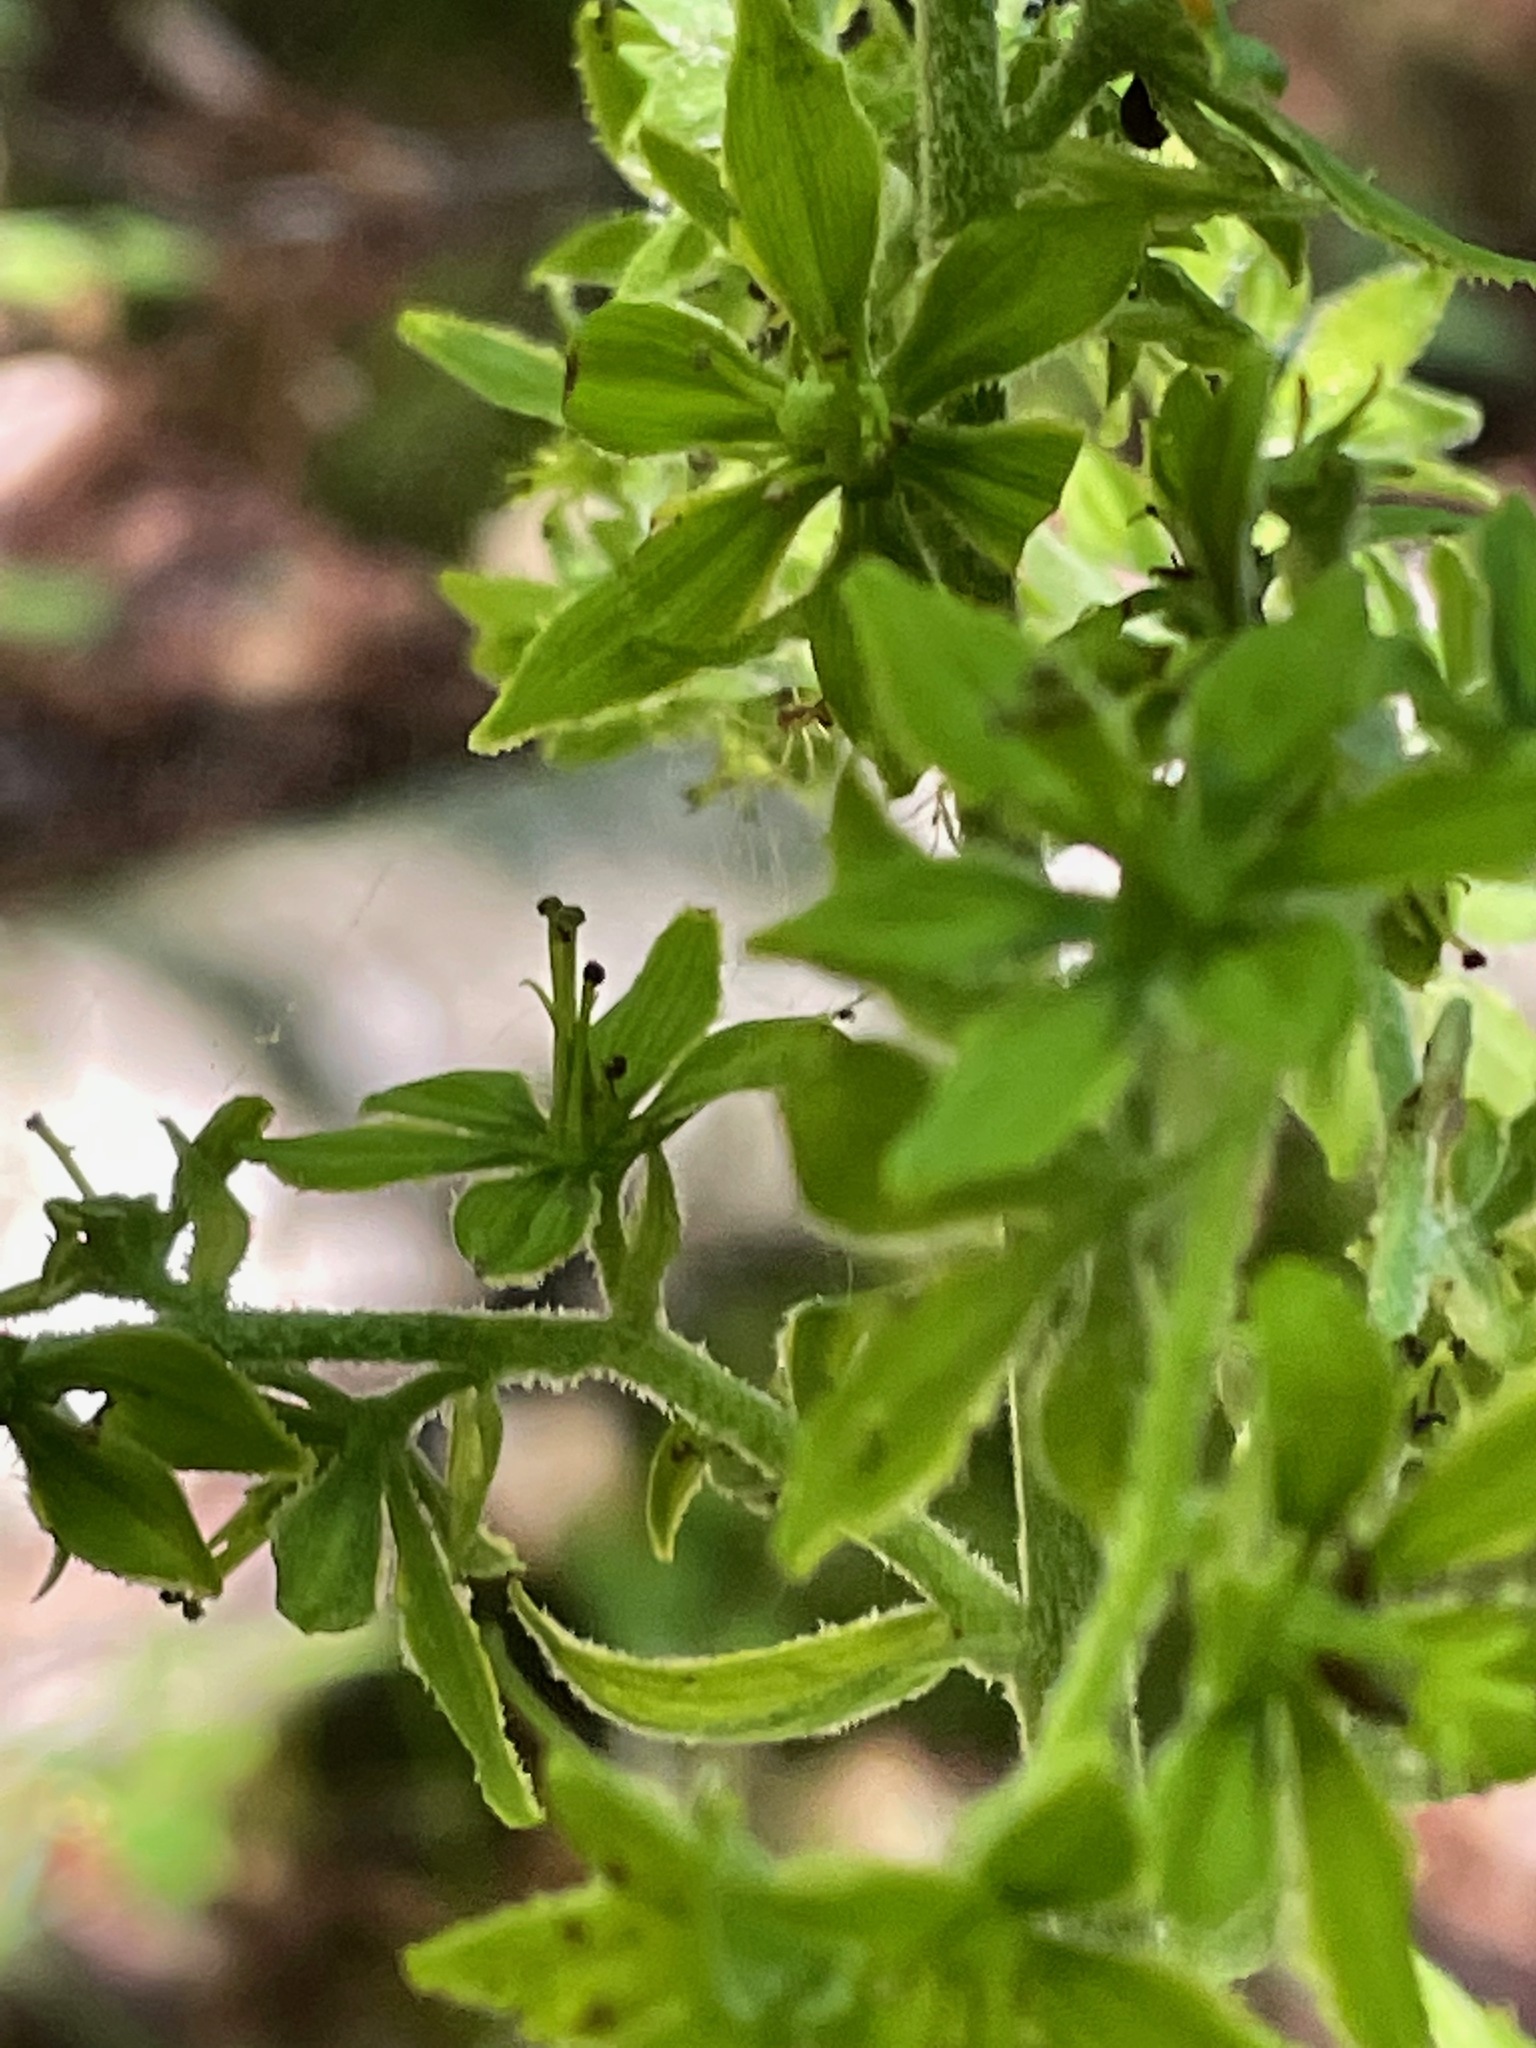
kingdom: Plantae
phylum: Tracheophyta
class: Liliopsida
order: Liliales
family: Melanthiaceae
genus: Veratrum
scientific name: Veratrum viride
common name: American false hellebore
